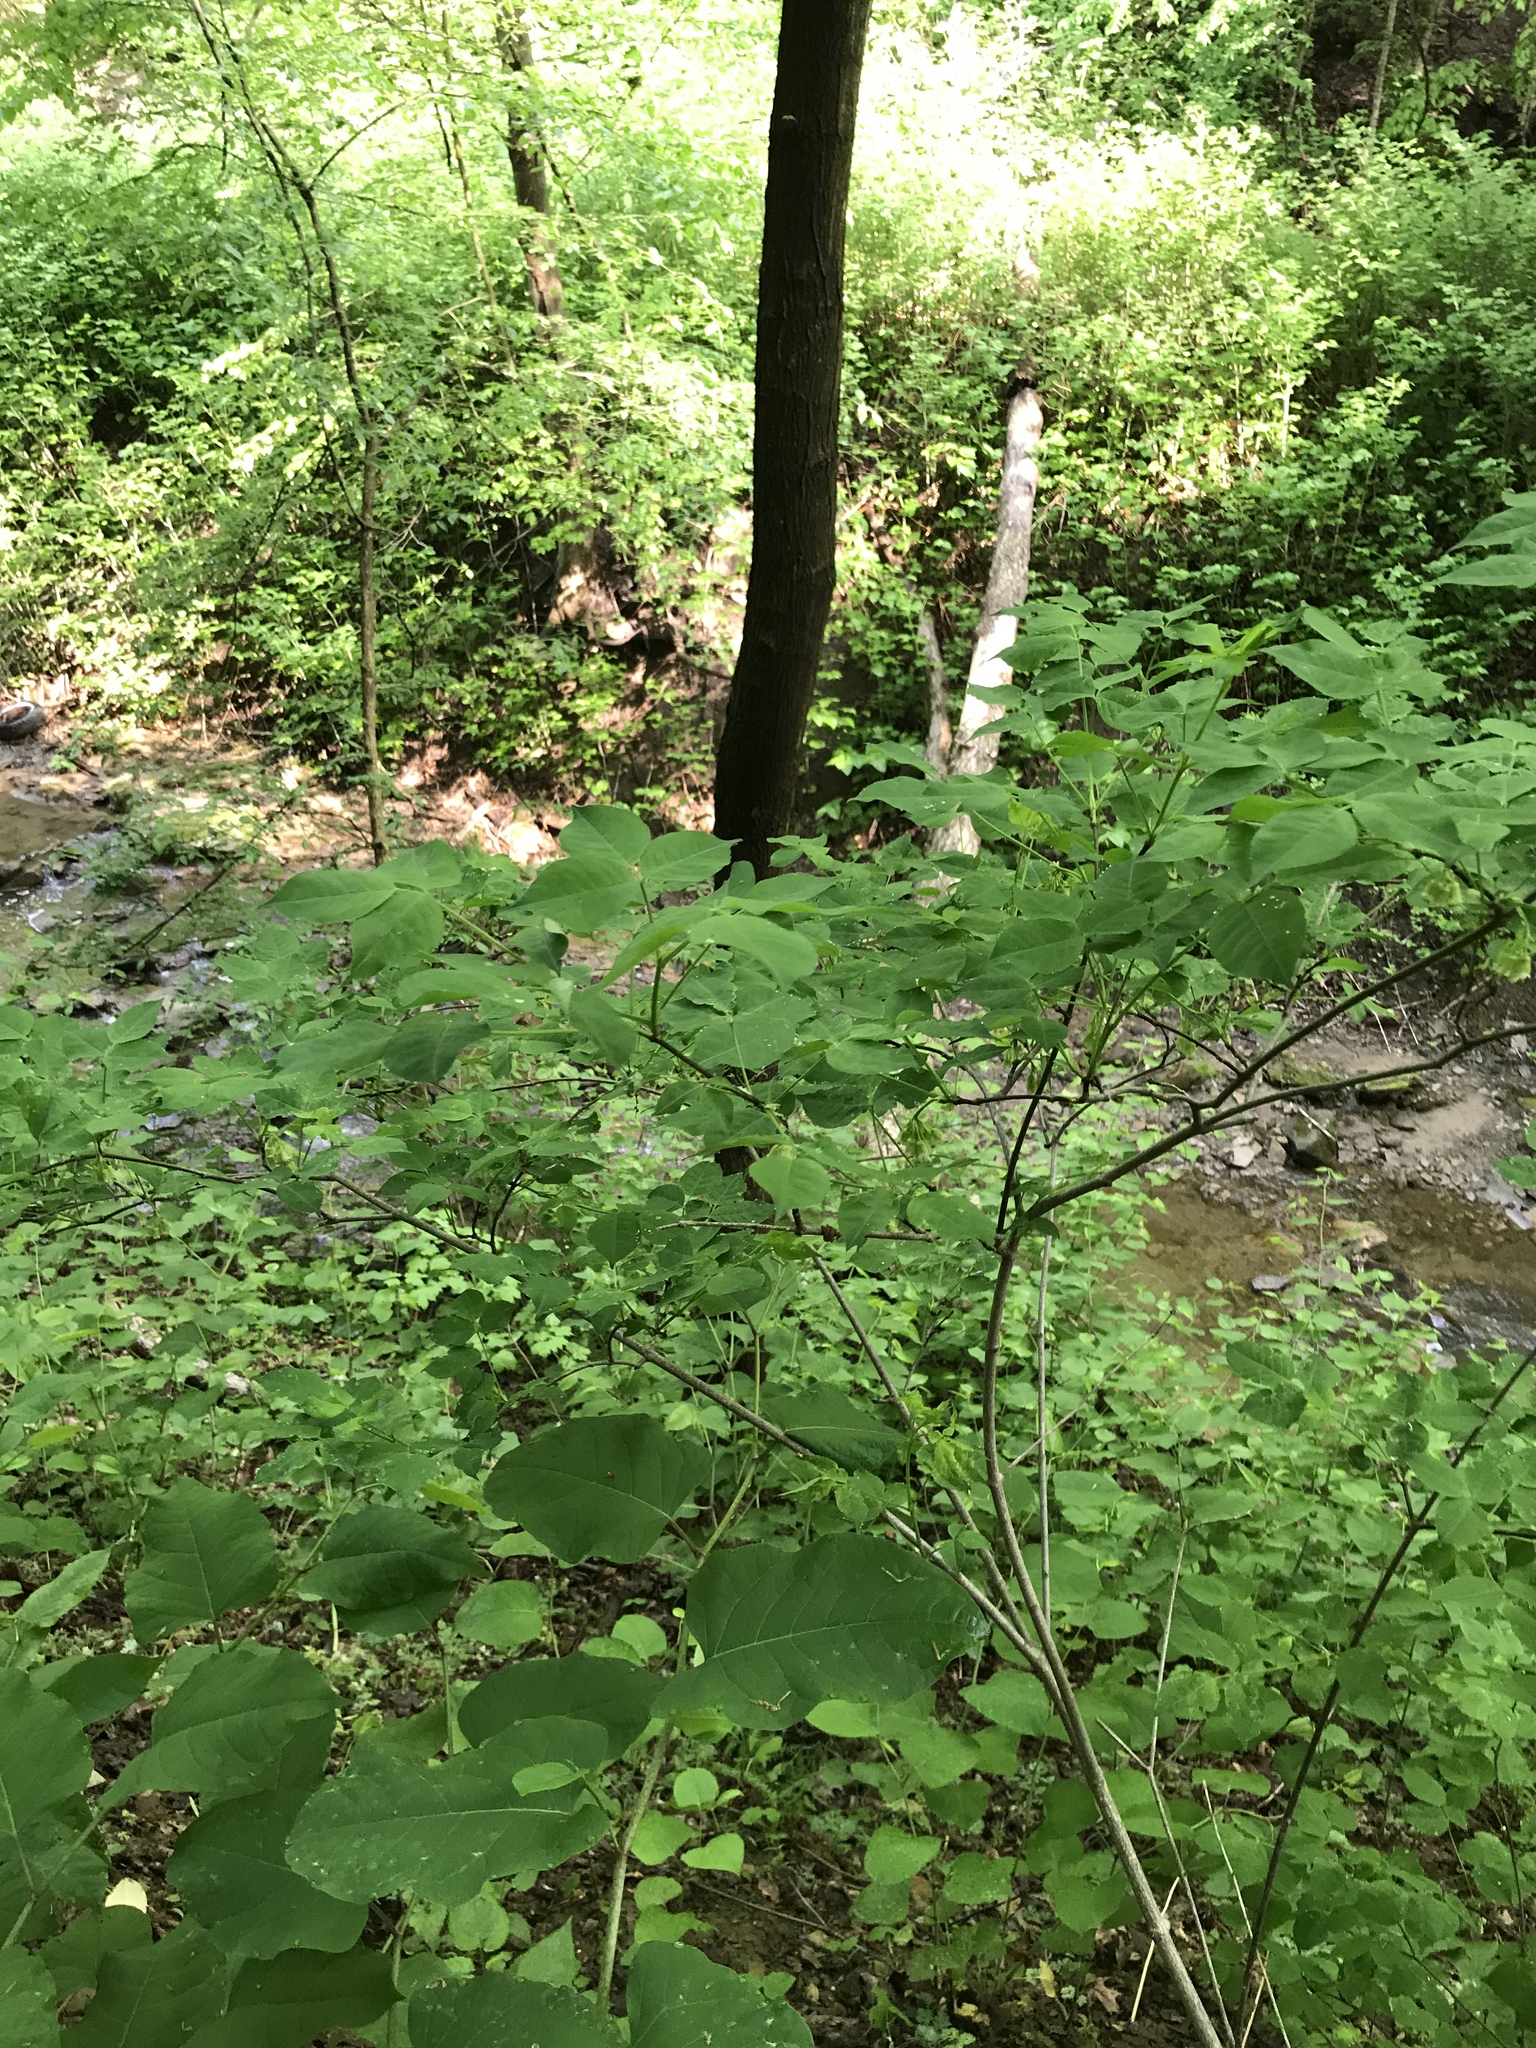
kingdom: Plantae
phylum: Tracheophyta
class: Magnoliopsida
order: Crossosomatales
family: Staphyleaceae
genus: Staphylea
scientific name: Staphylea trifolia
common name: American bladdernut
